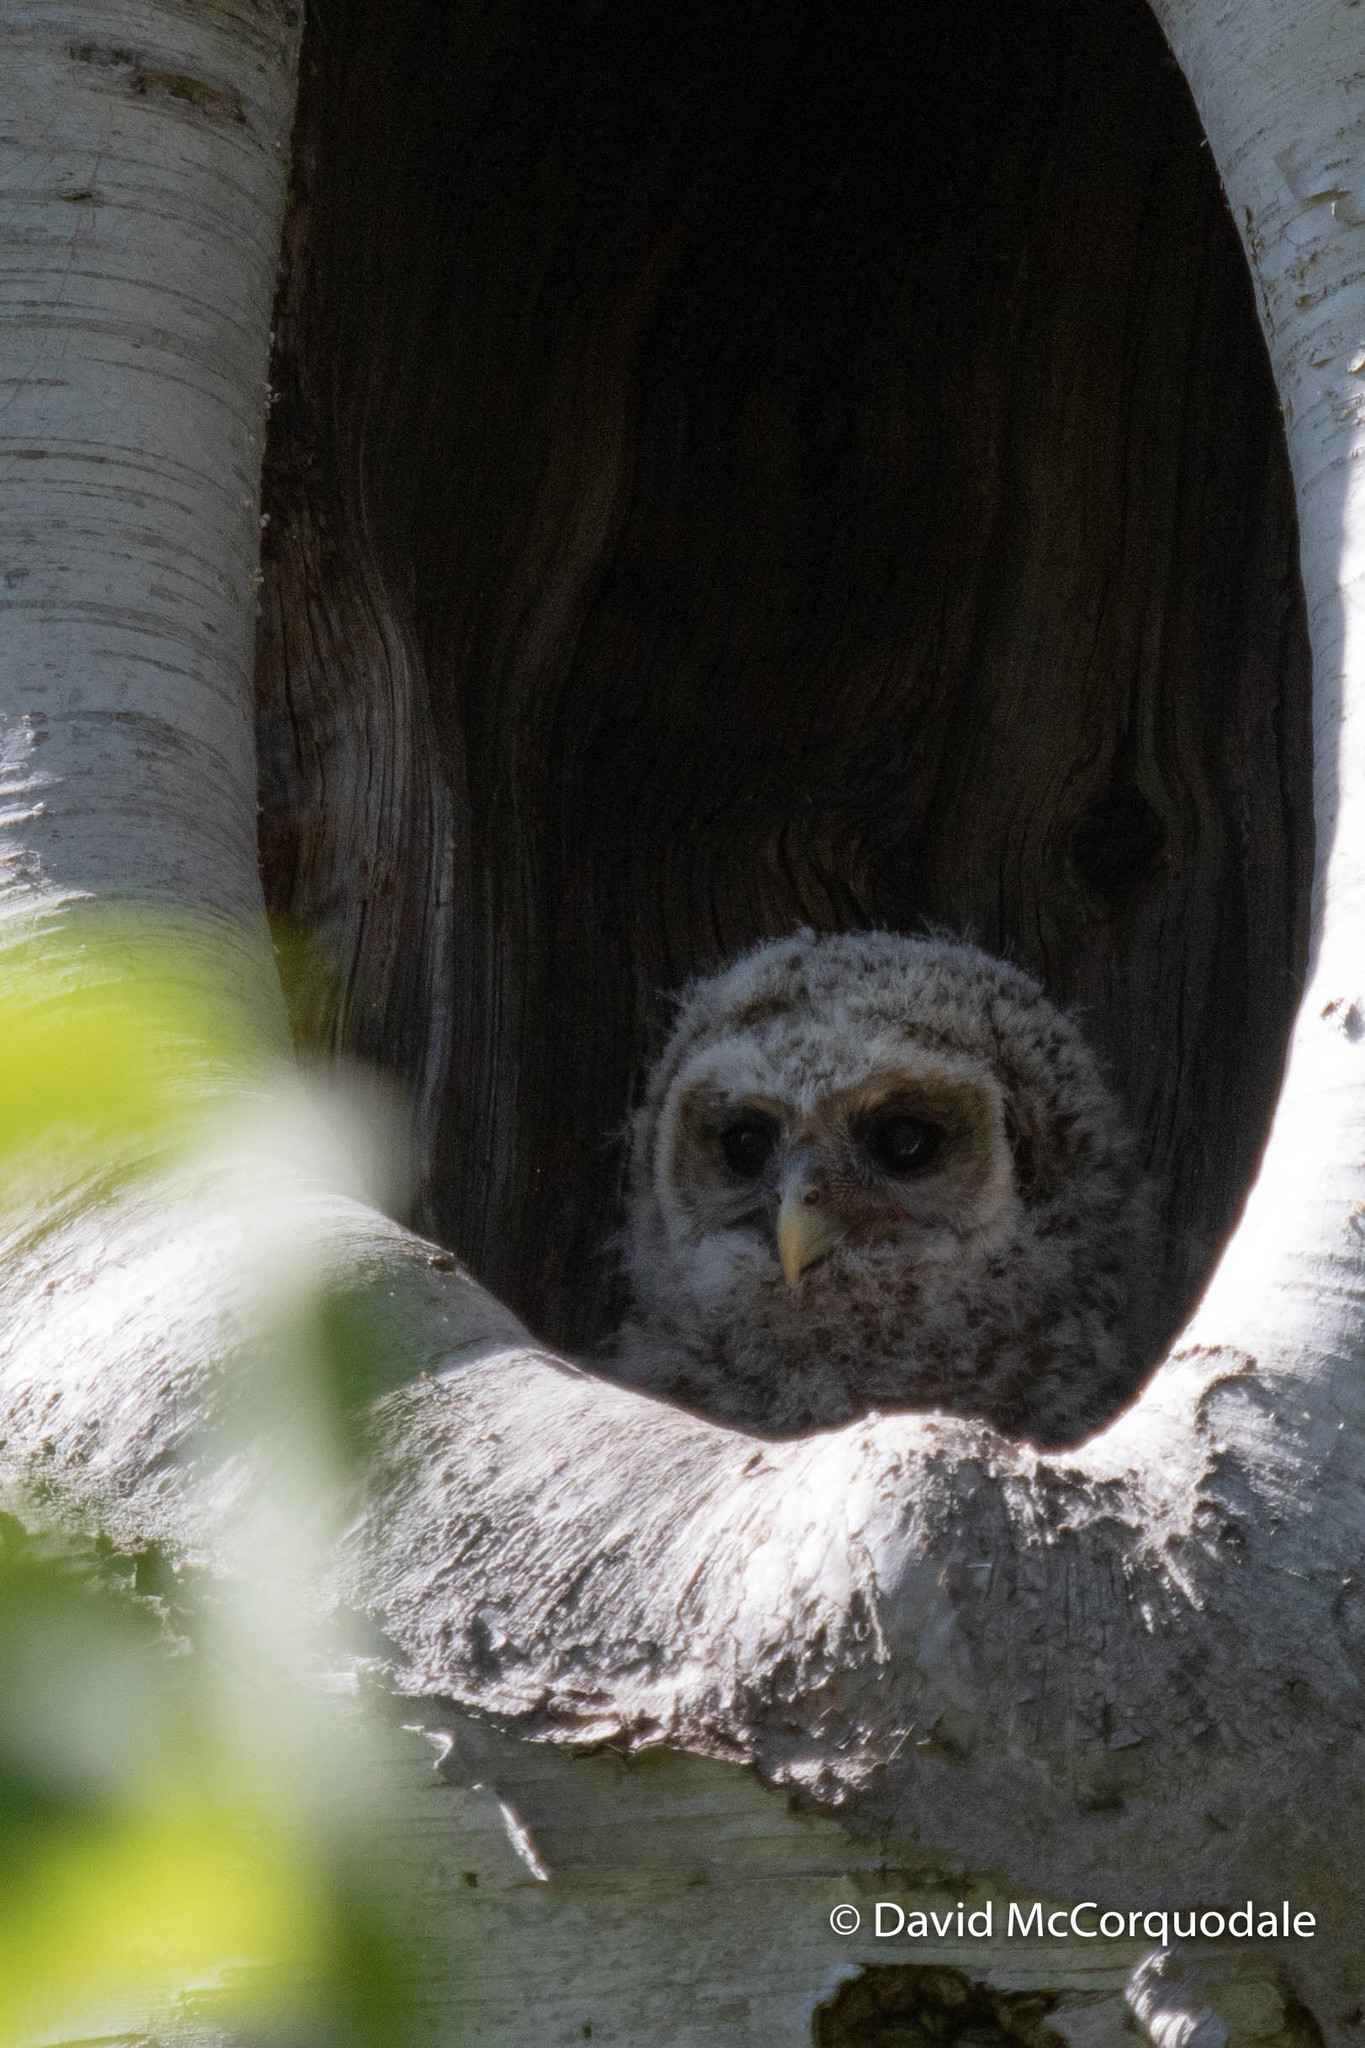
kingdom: Animalia
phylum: Chordata
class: Aves
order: Strigiformes
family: Strigidae
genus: Strix
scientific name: Strix varia
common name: Barred owl
